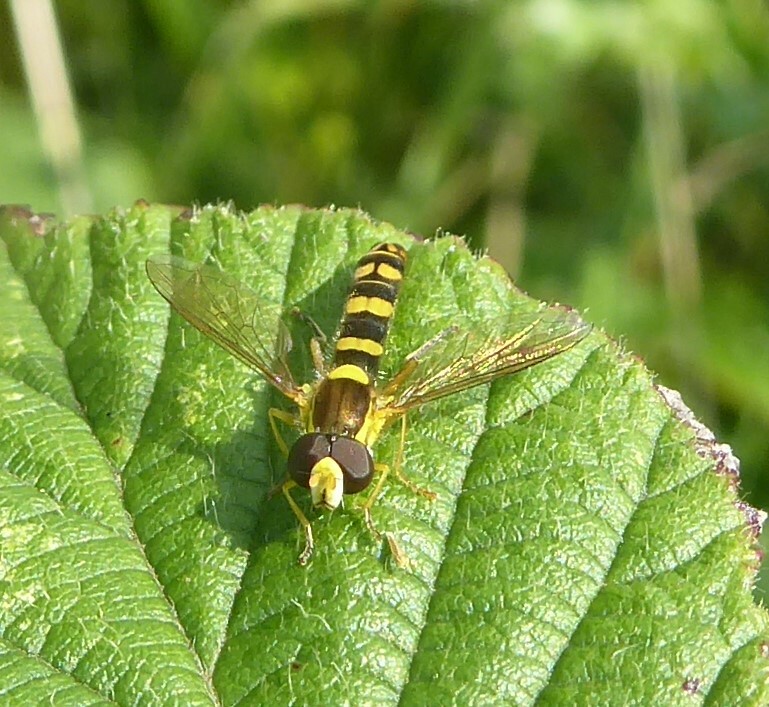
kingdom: Animalia
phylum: Arthropoda
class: Insecta
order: Diptera
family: Syrphidae
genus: Sphaerophoria
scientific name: Sphaerophoria
